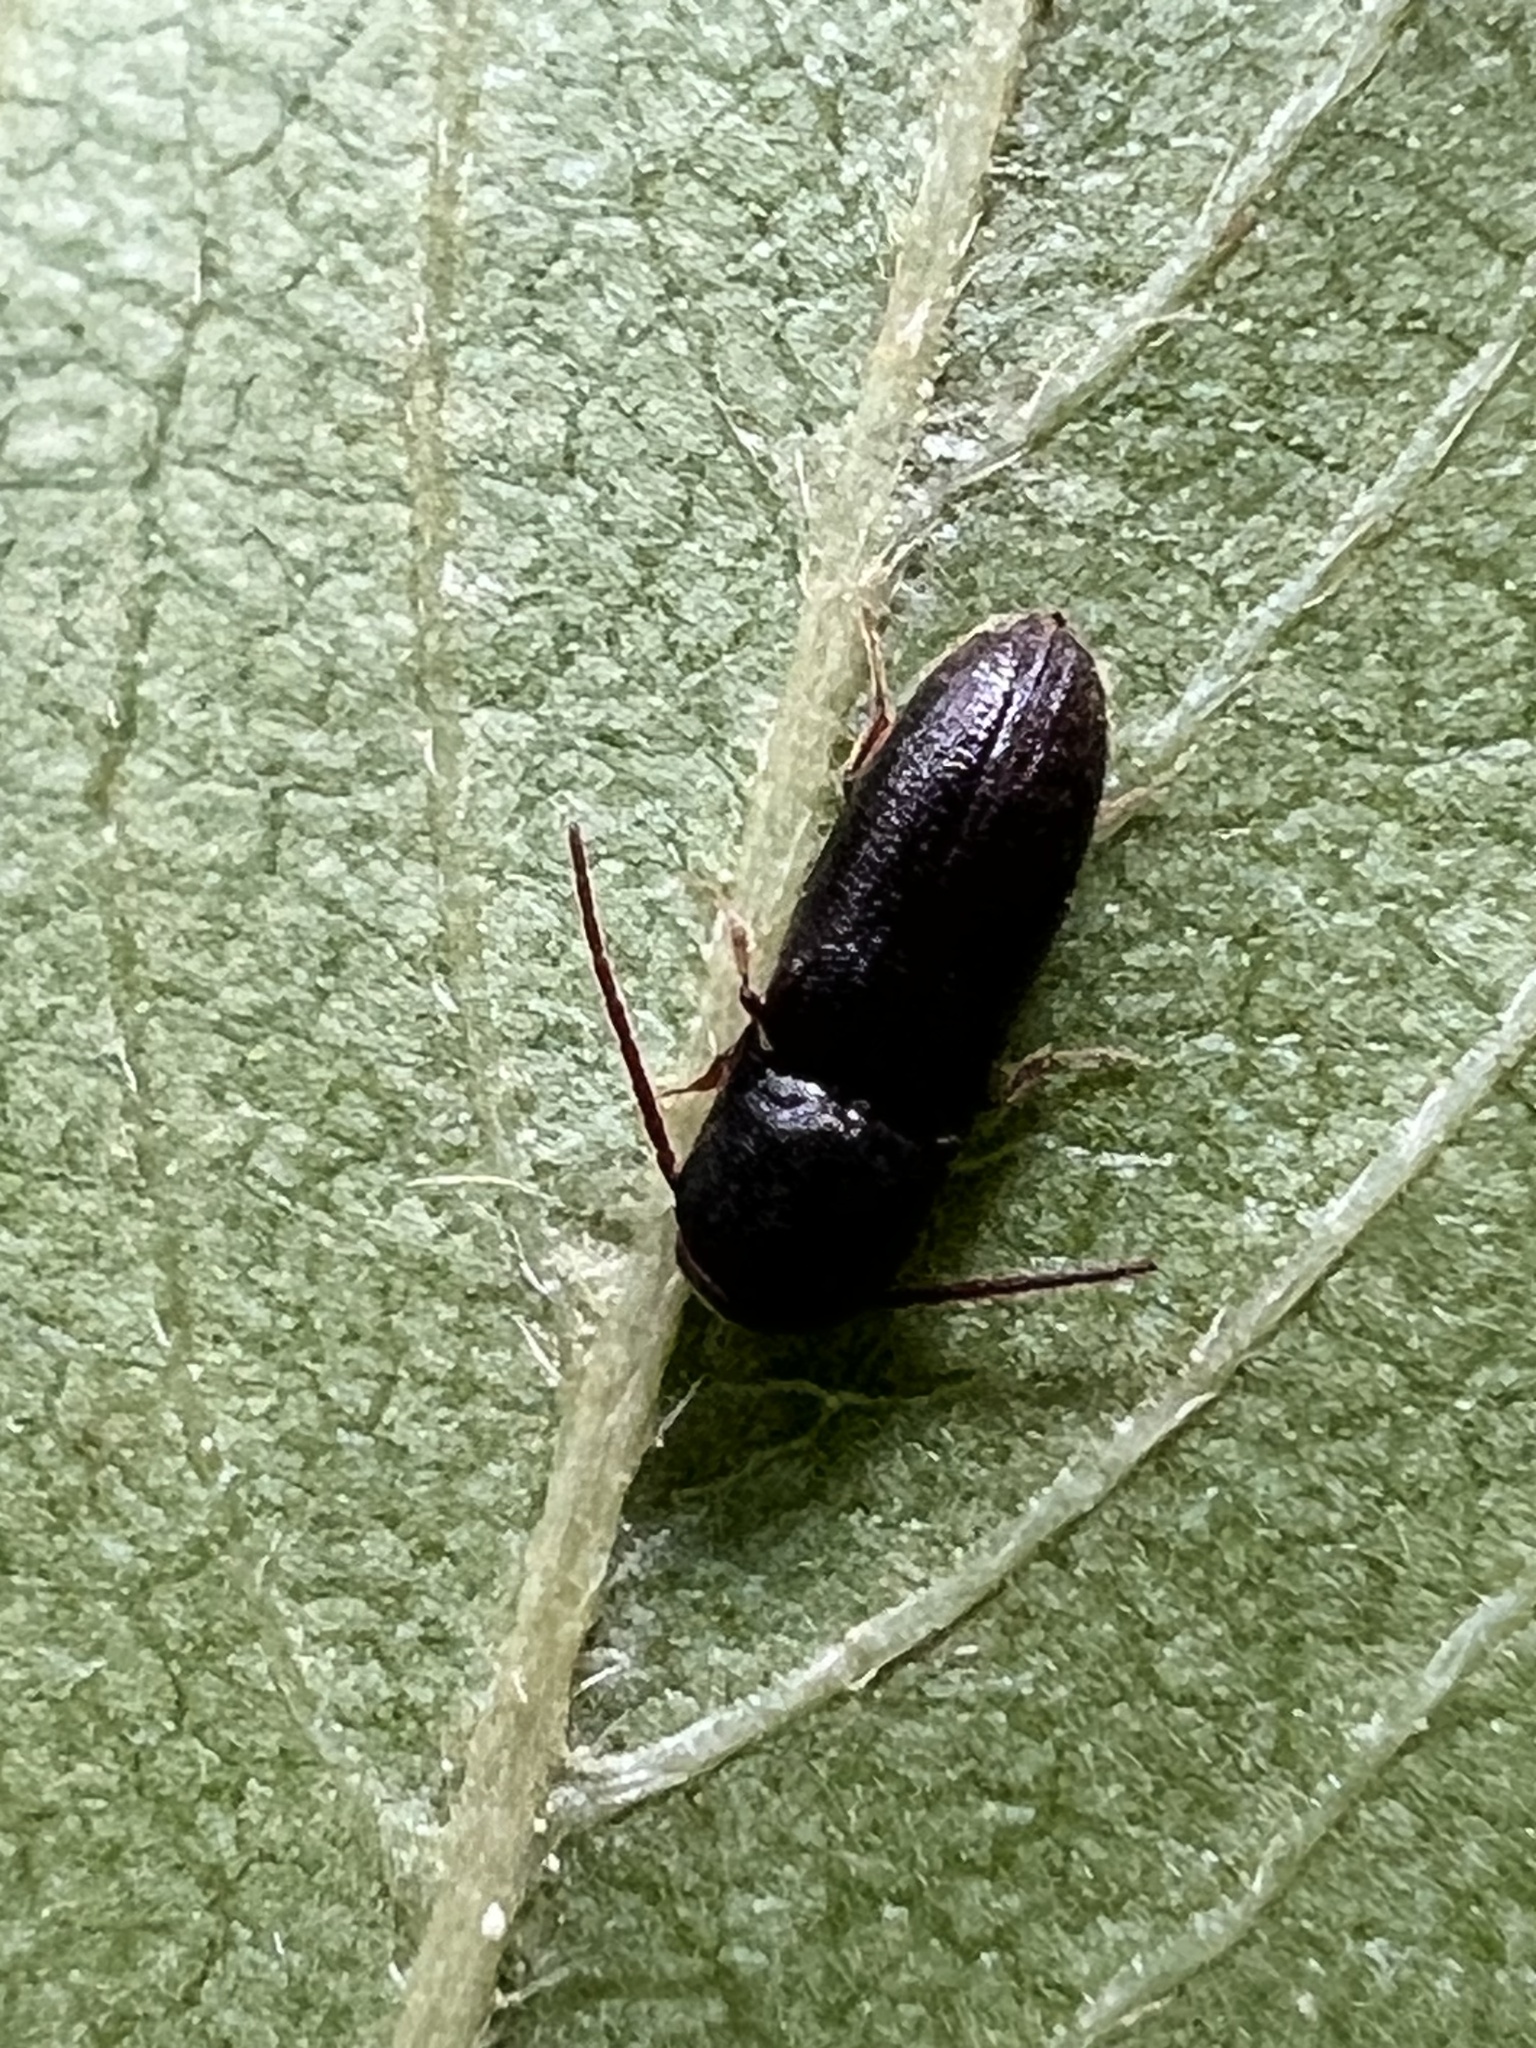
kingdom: Animalia
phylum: Arthropoda
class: Insecta
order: Coleoptera
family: Eucnemidae
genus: Rhagomicrus
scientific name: Rhagomicrus humeralis
